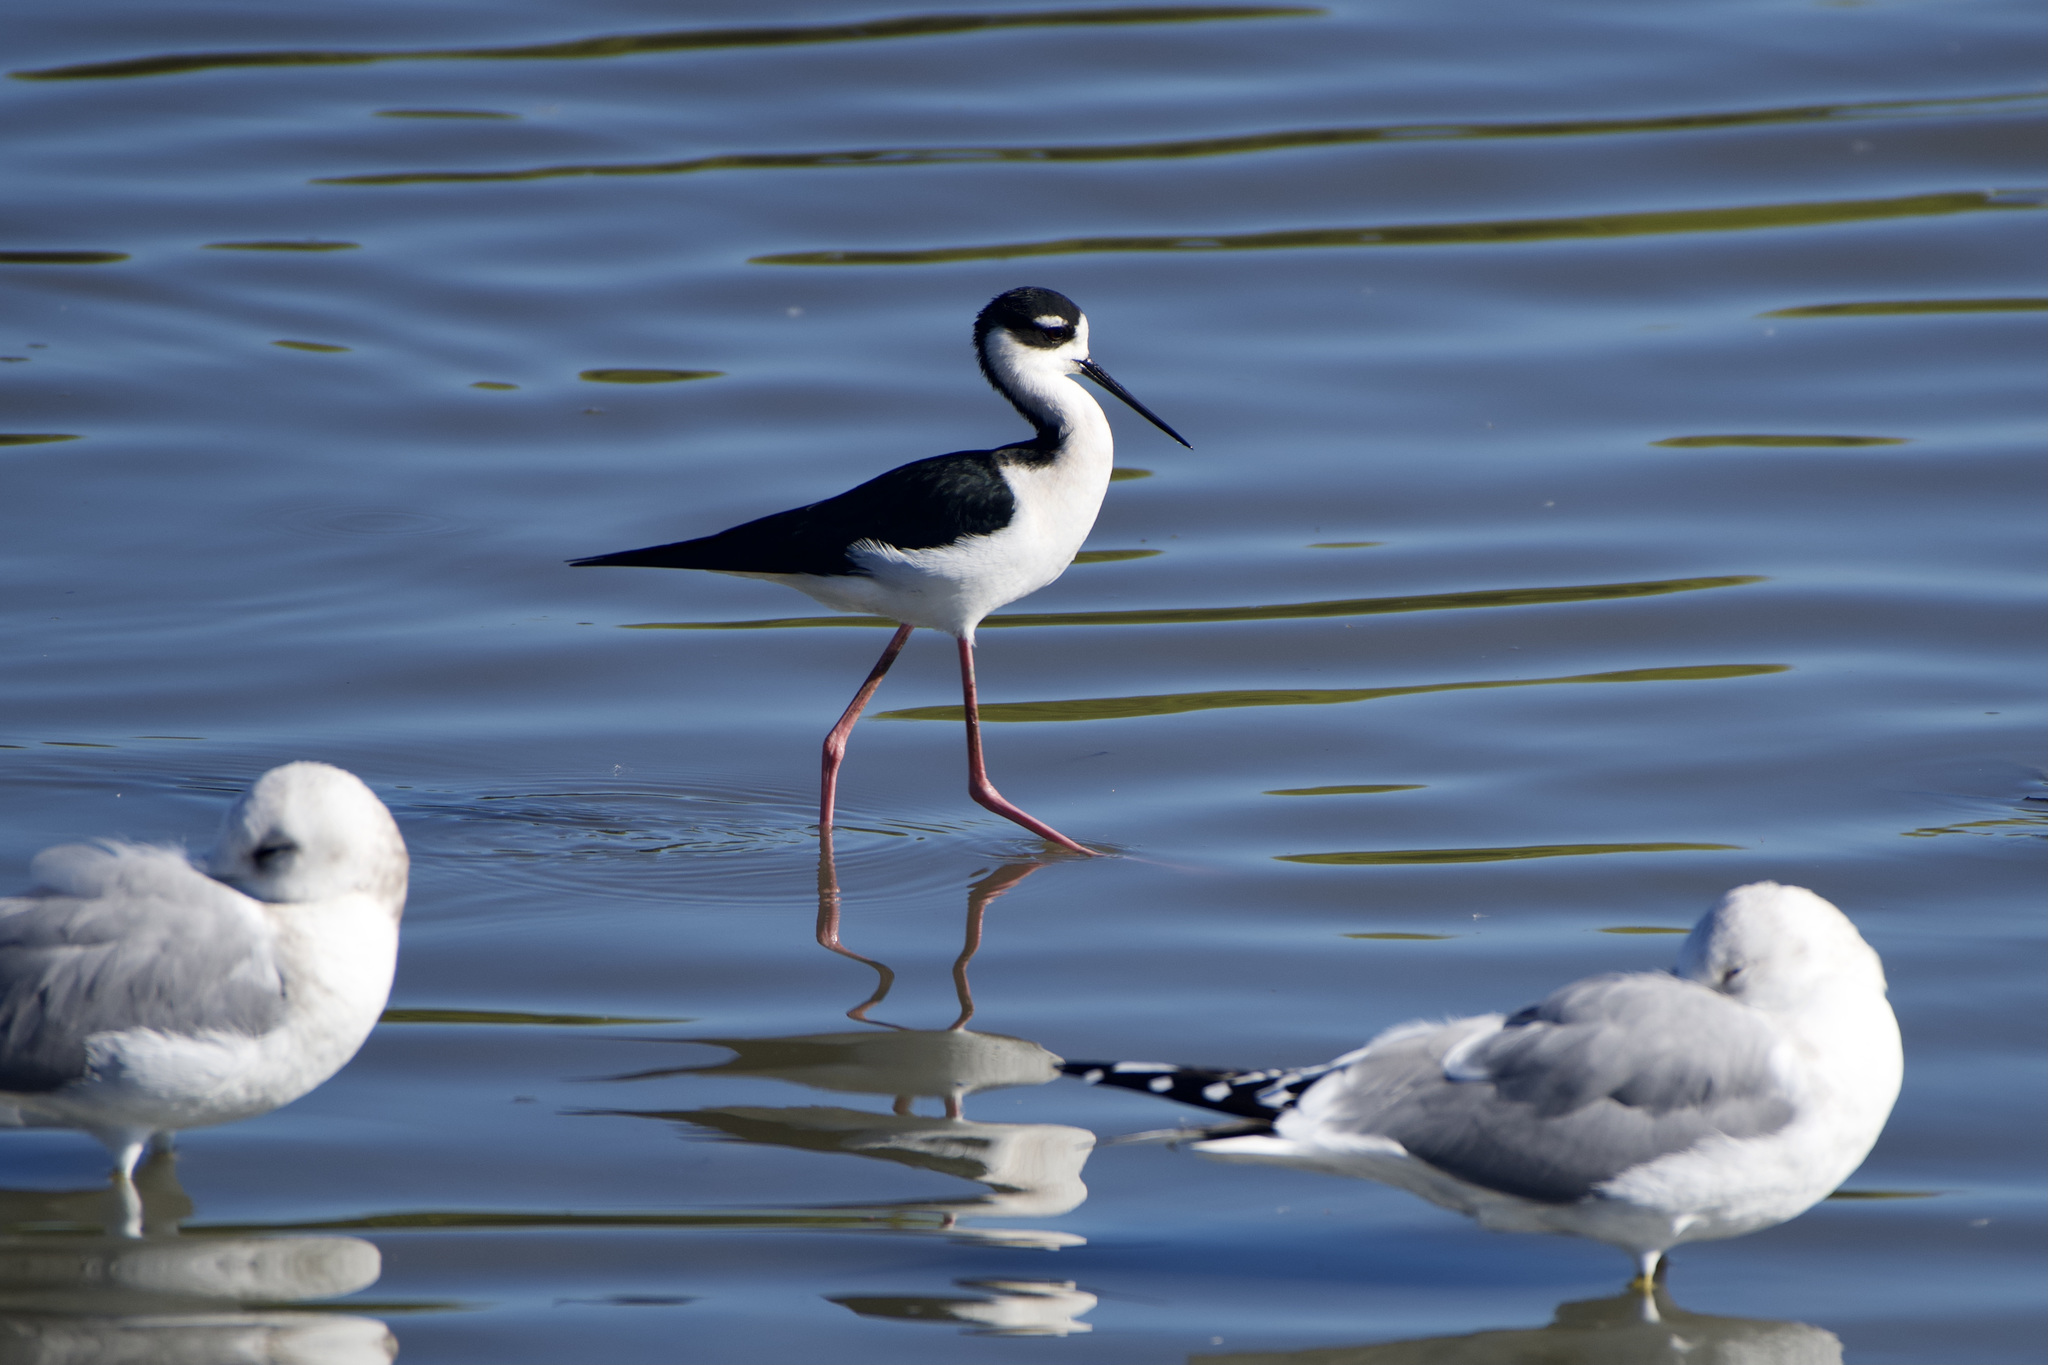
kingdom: Animalia
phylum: Chordata
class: Aves
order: Charadriiformes
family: Recurvirostridae
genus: Himantopus
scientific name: Himantopus mexicanus
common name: Black-necked stilt
